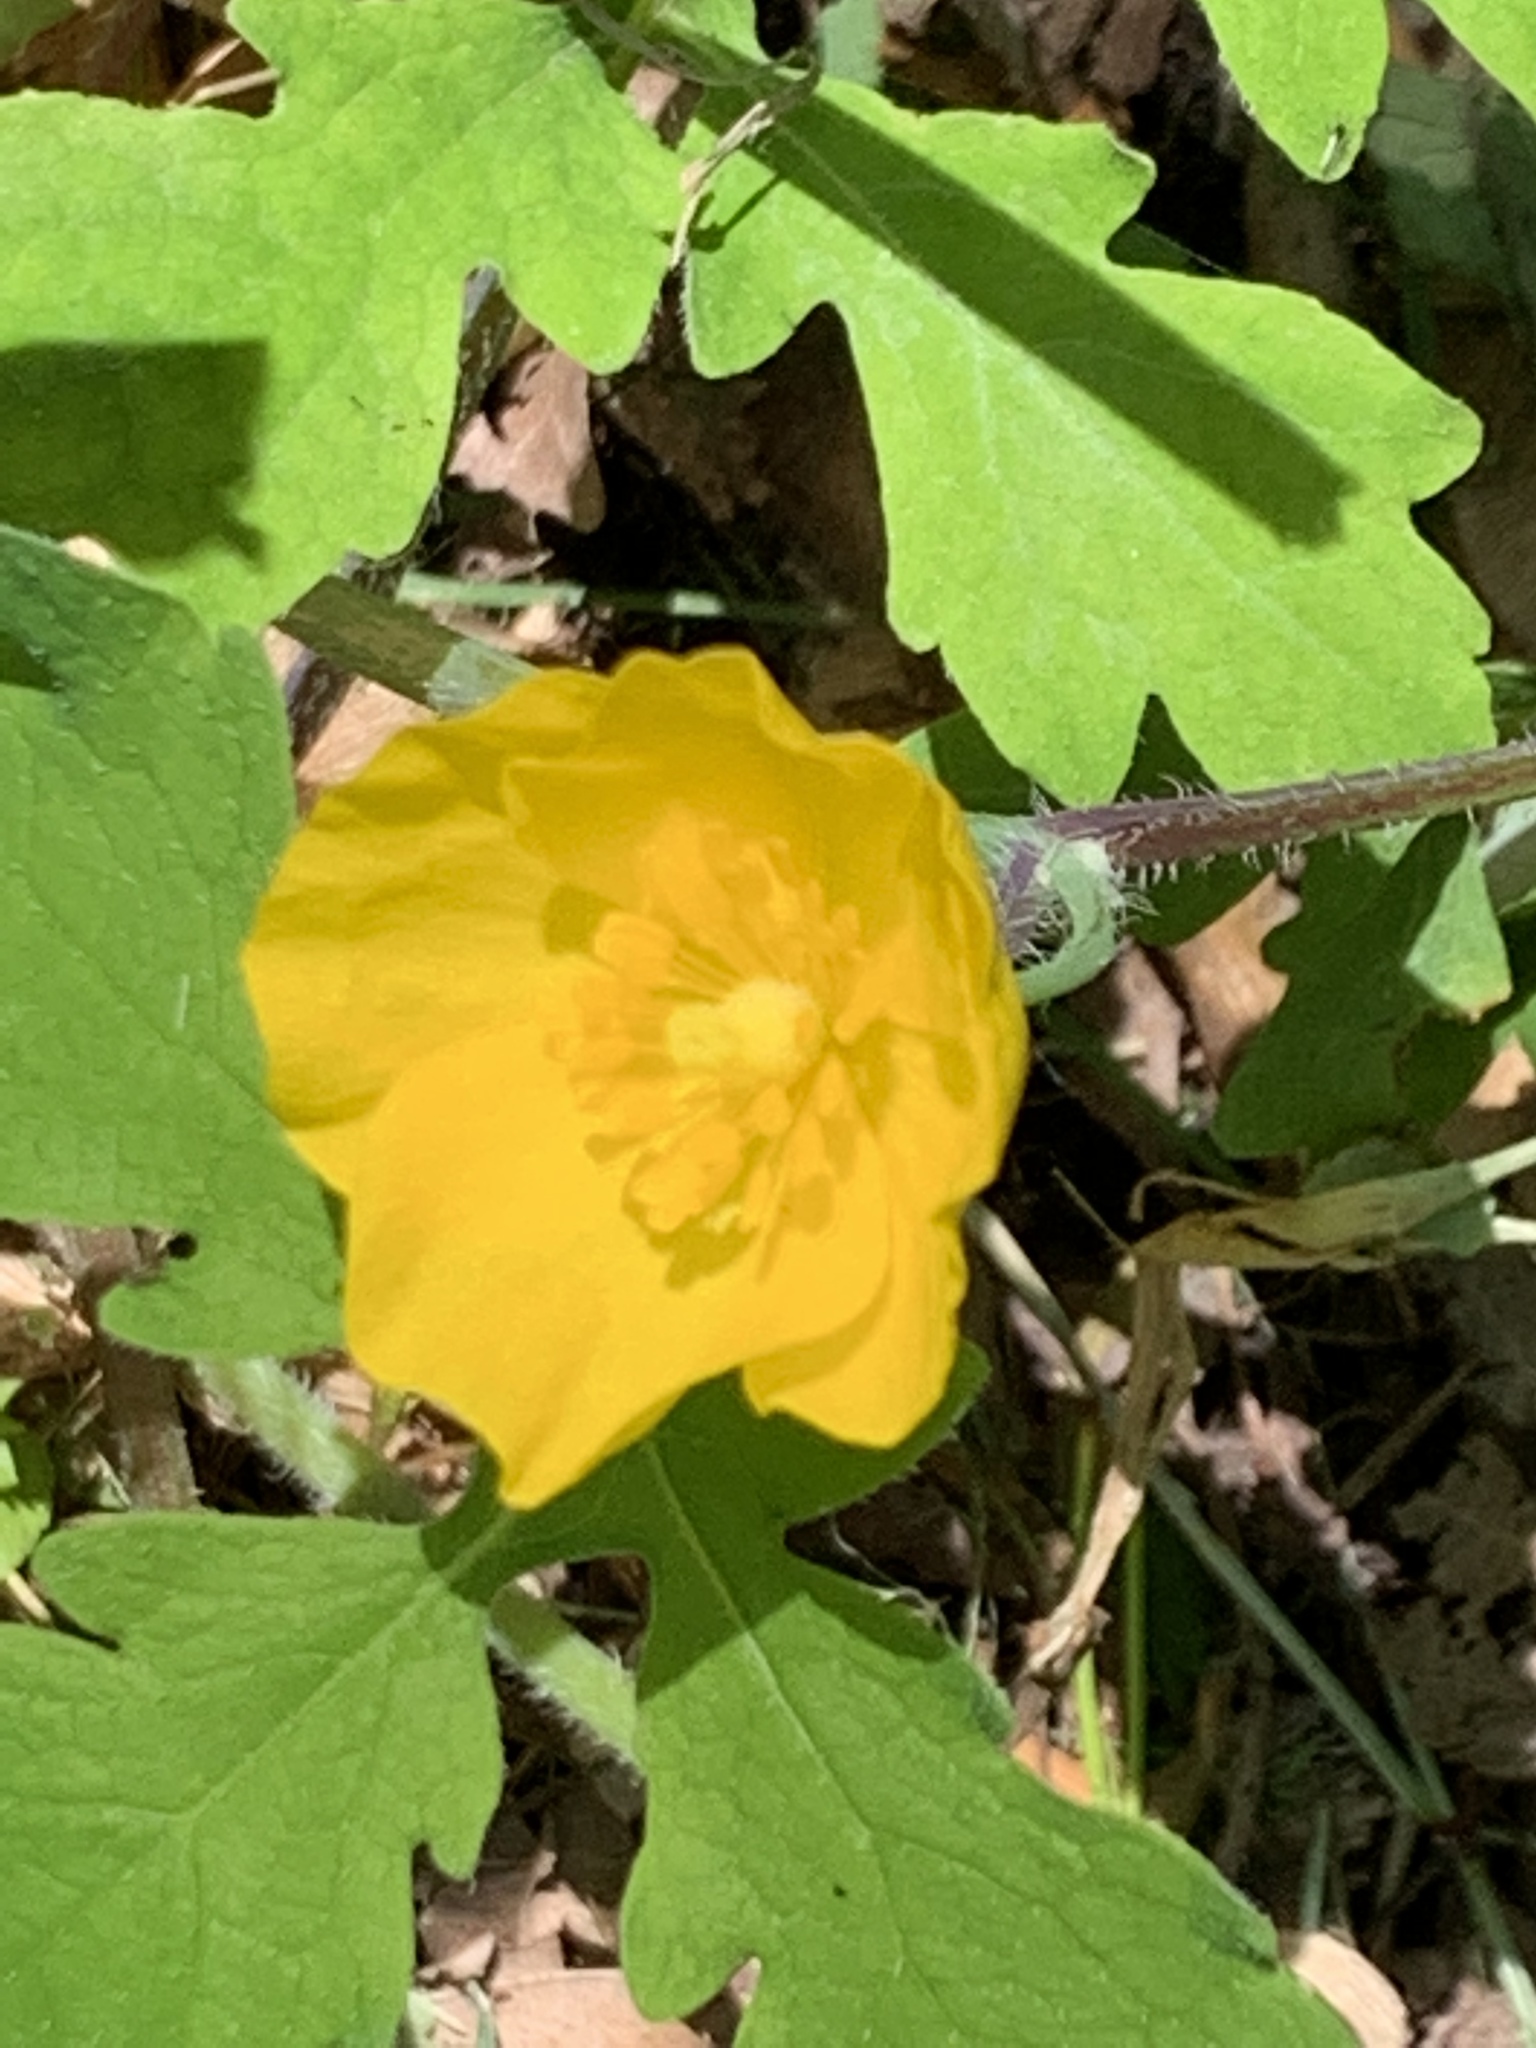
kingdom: Plantae
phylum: Tracheophyta
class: Magnoliopsida
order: Ranunculales
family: Papaveraceae
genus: Stylophorum
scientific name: Stylophorum diphyllum
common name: Celandine poppy
